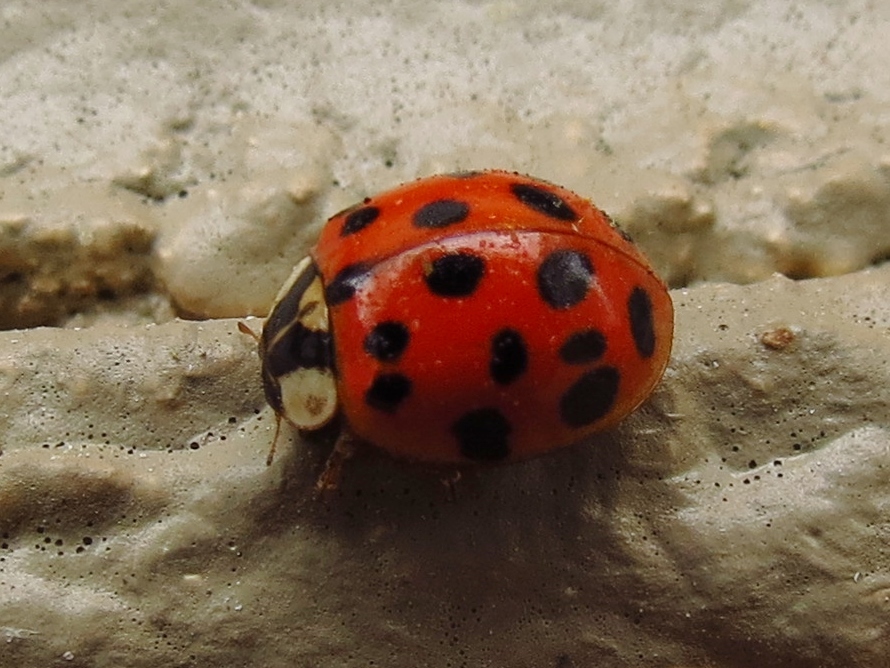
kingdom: Animalia
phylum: Arthropoda
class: Insecta
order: Coleoptera
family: Coccinellidae
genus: Harmonia
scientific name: Harmonia axyridis
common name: Harlequin ladybird
